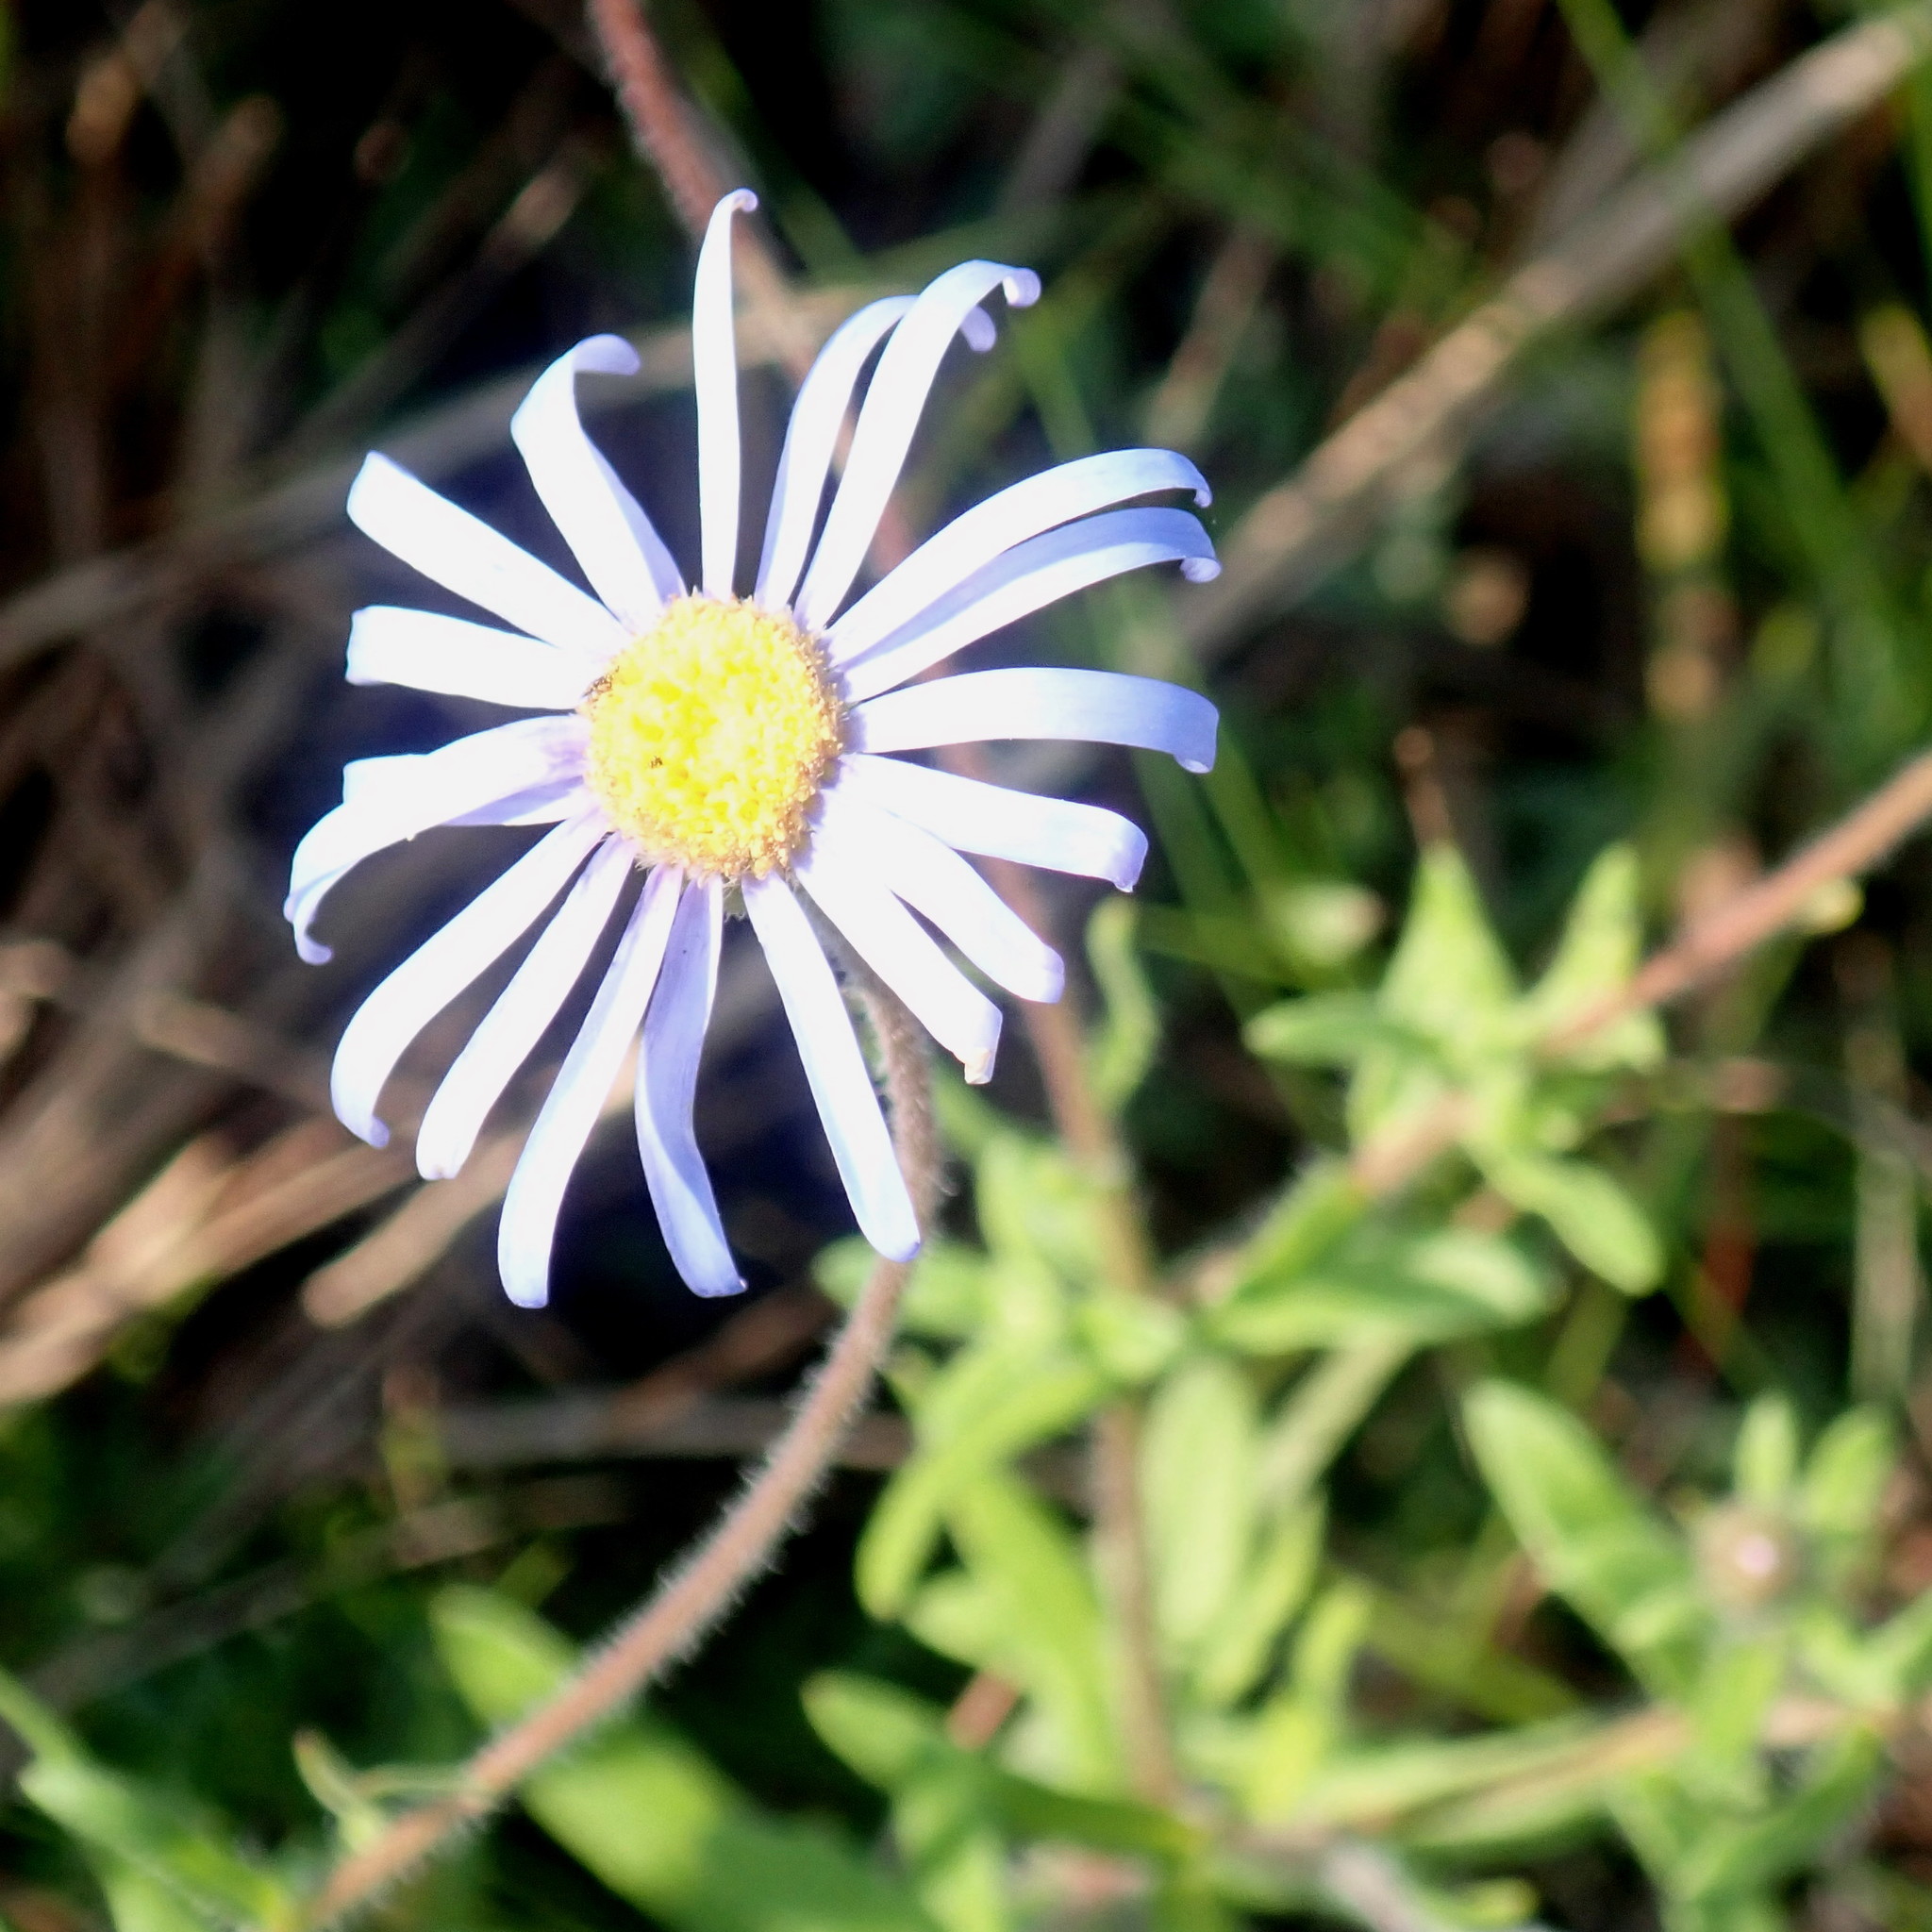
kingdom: Plantae
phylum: Tracheophyta
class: Magnoliopsida
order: Asterales
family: Asteraceae
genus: Felicia
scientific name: Felicia amoena
